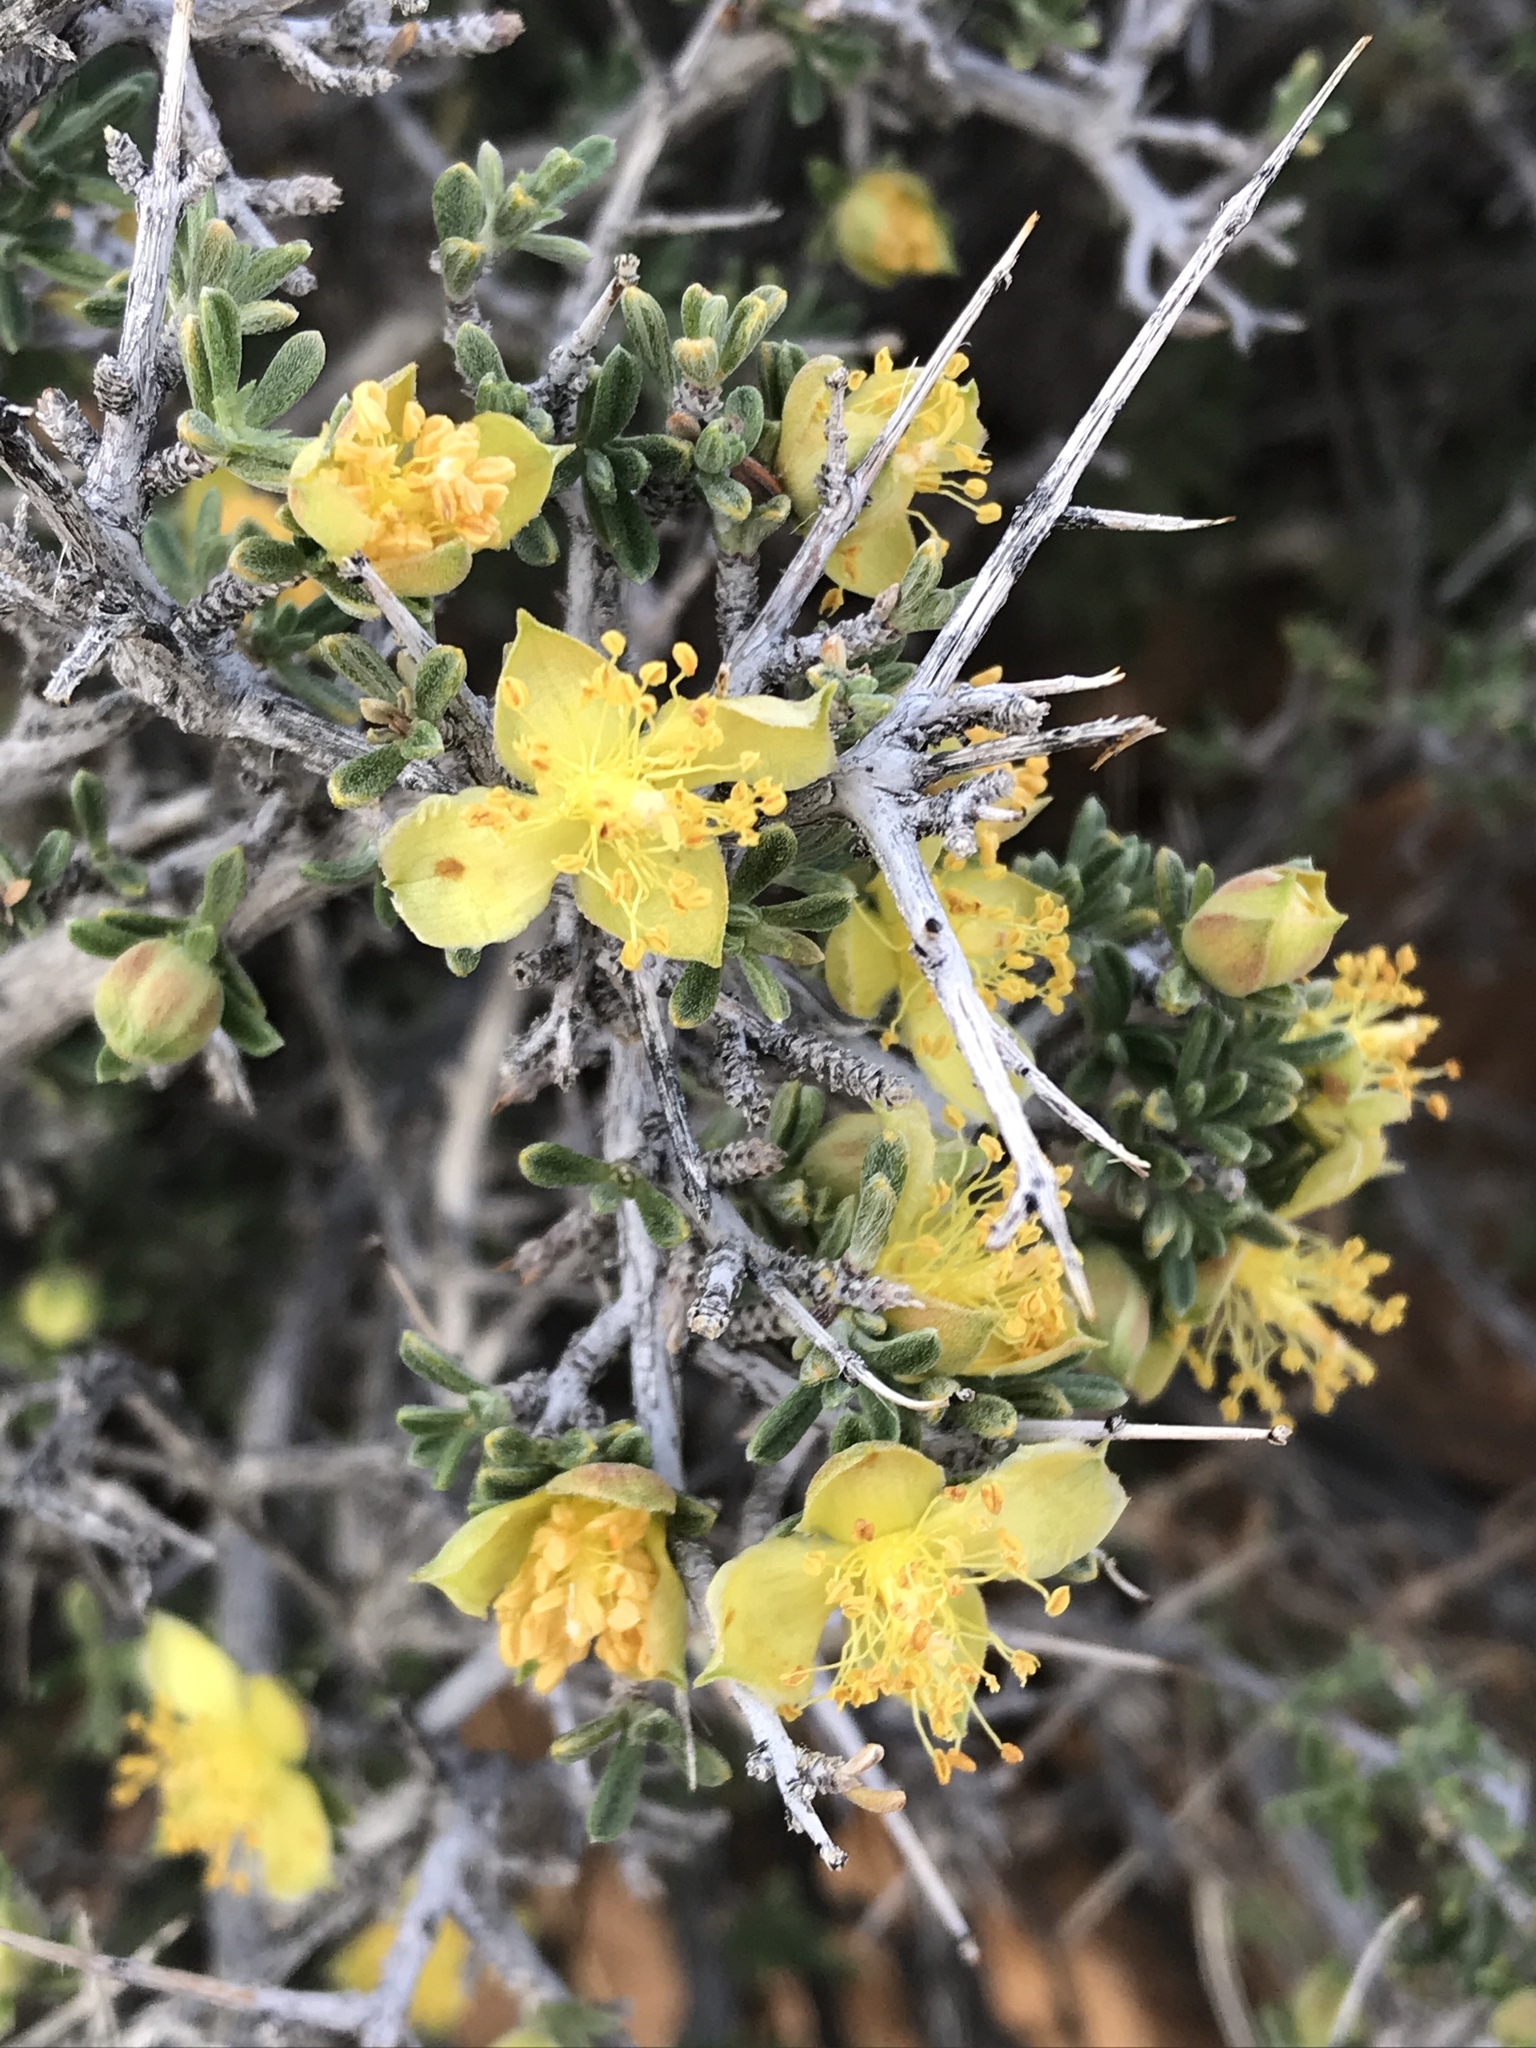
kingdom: Plantae
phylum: Tracheophyta
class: Magnoliopsida
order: Rosales
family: Rosaceae
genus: Coleogyne
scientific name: Coleogyne ramosissima
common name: Blackbrush
